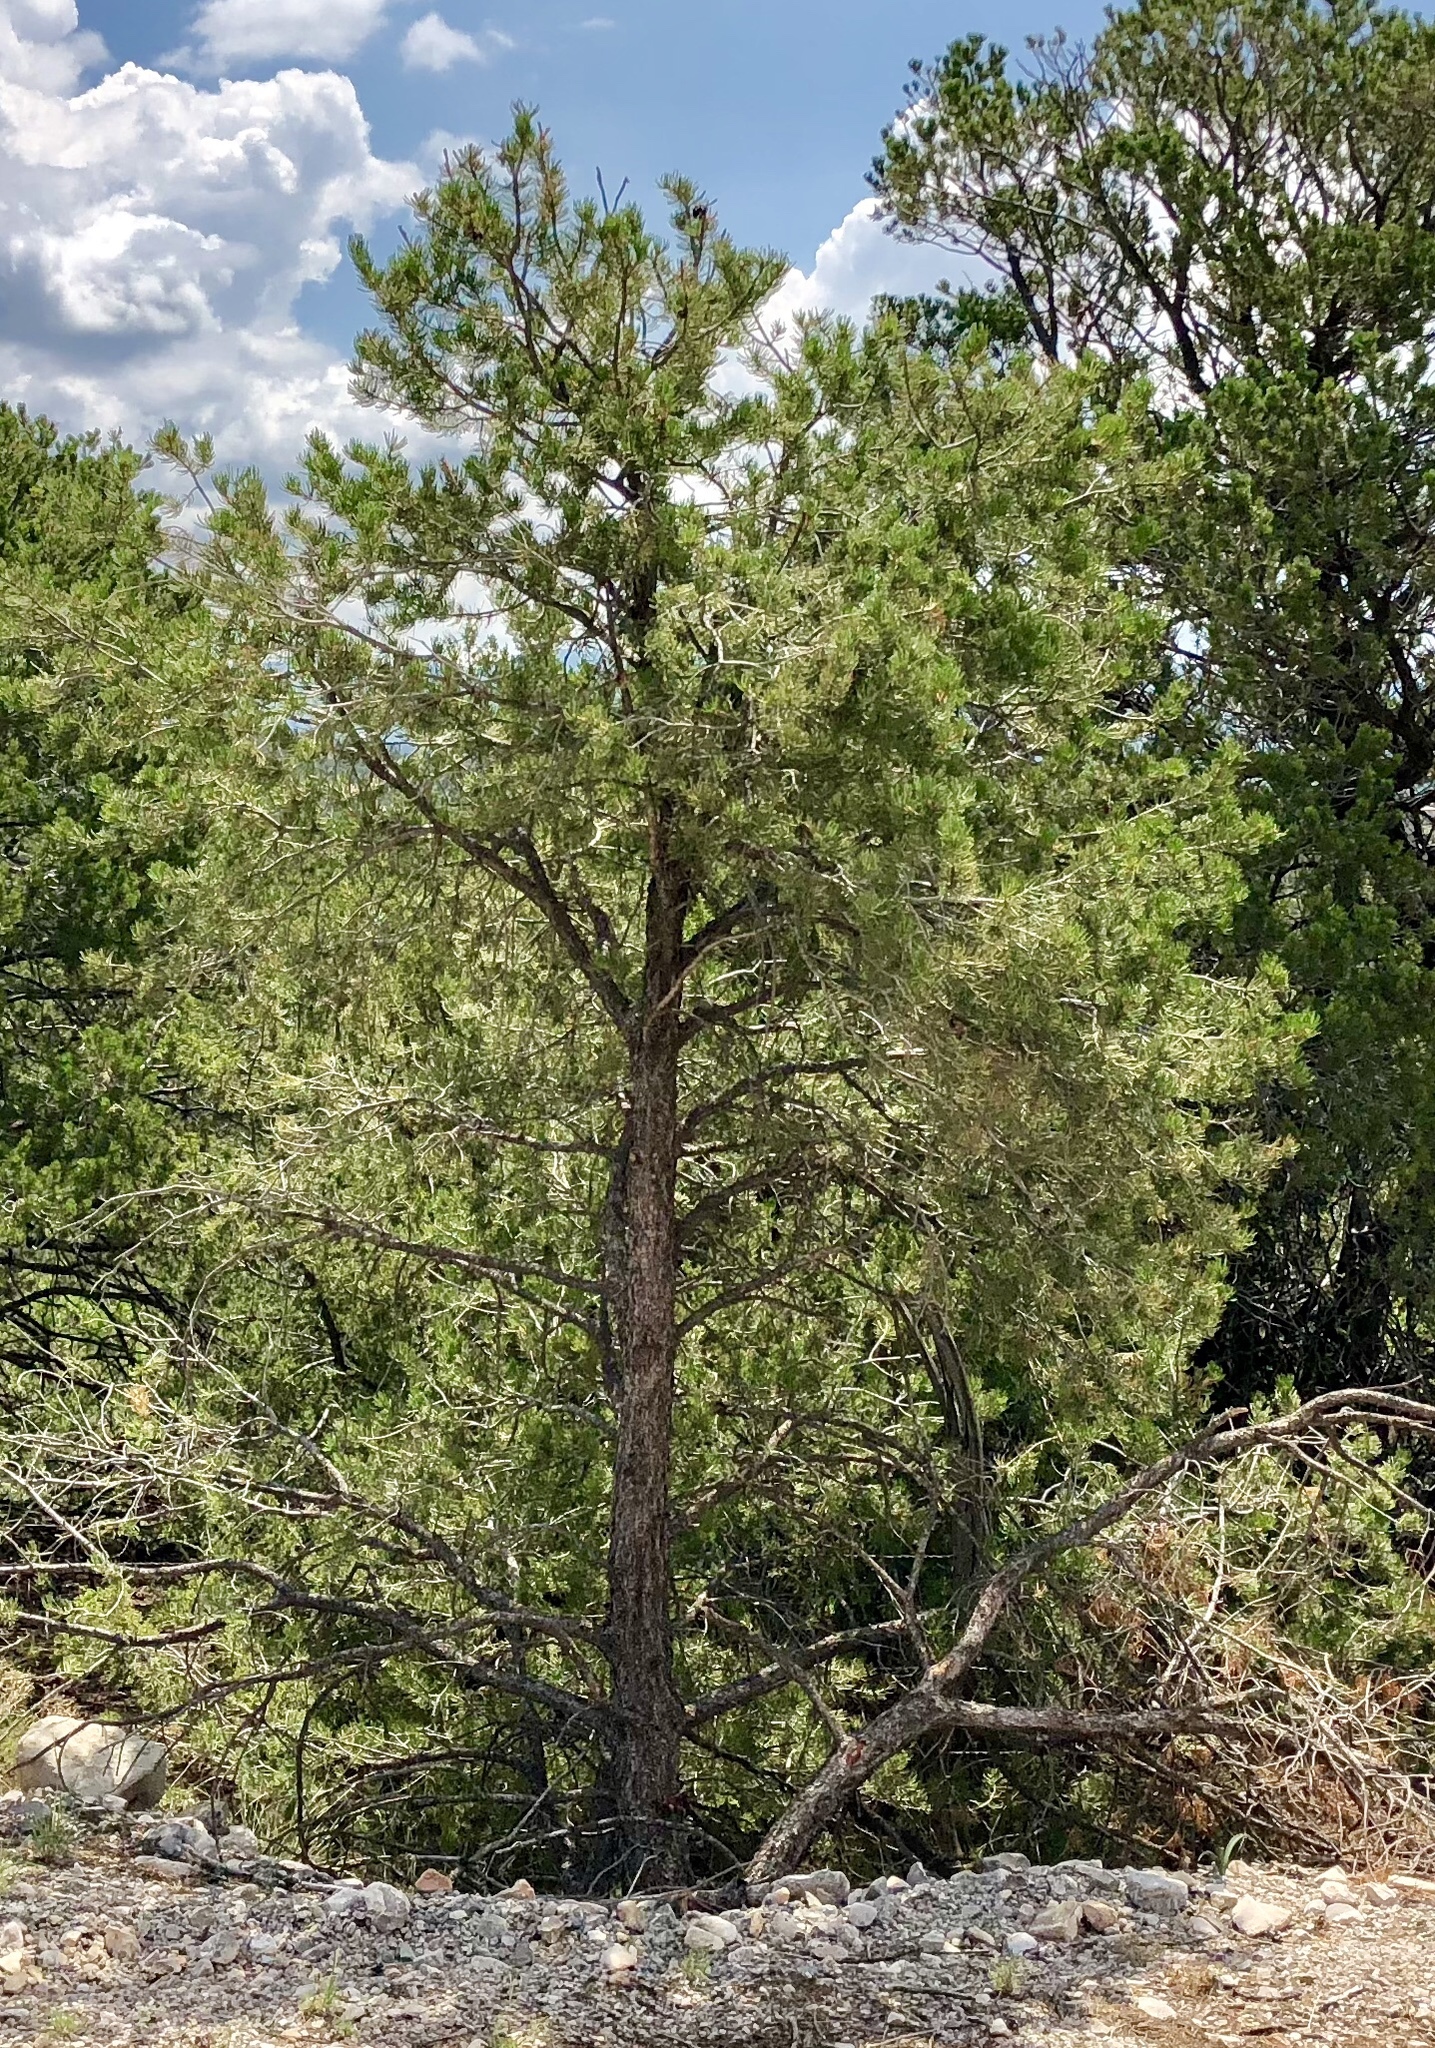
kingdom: Plantae
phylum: Tracheophyta
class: Pinopsida
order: Pinales
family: Pinaceae
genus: Pinus
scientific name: Pinus edulis
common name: Colorado pinyon
